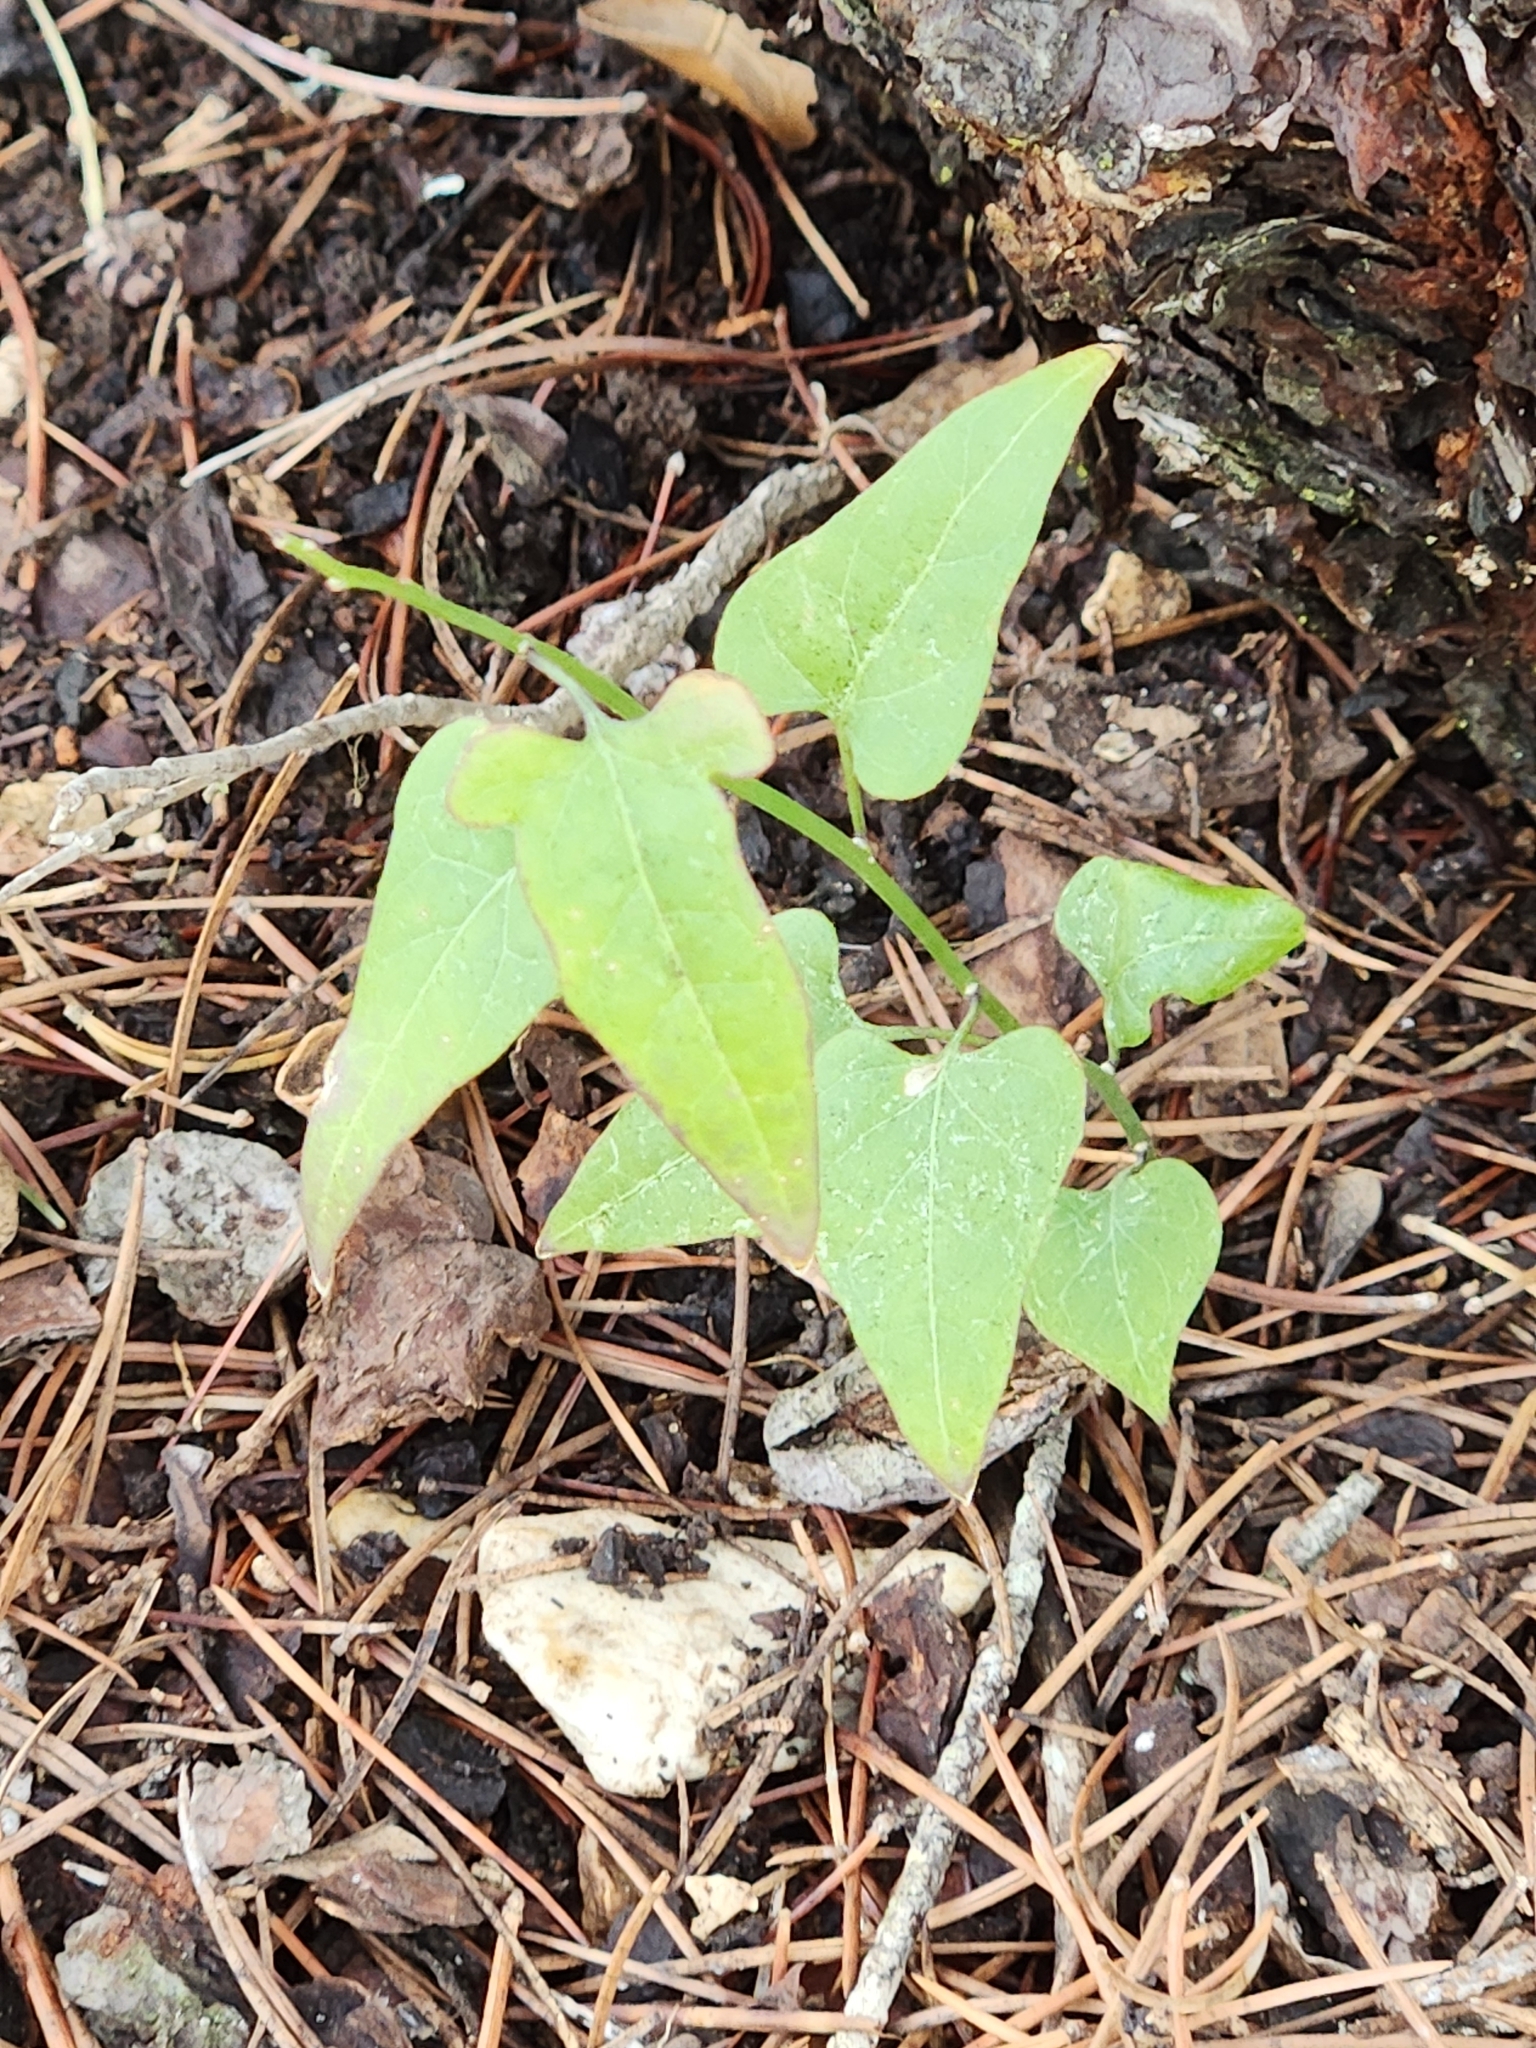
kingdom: Plantae
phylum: Tracheophyta
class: Magnoliopsida
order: Solanales
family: Solanaceae
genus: Solanum
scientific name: Solanum triquetrum
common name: Texas nightshade
